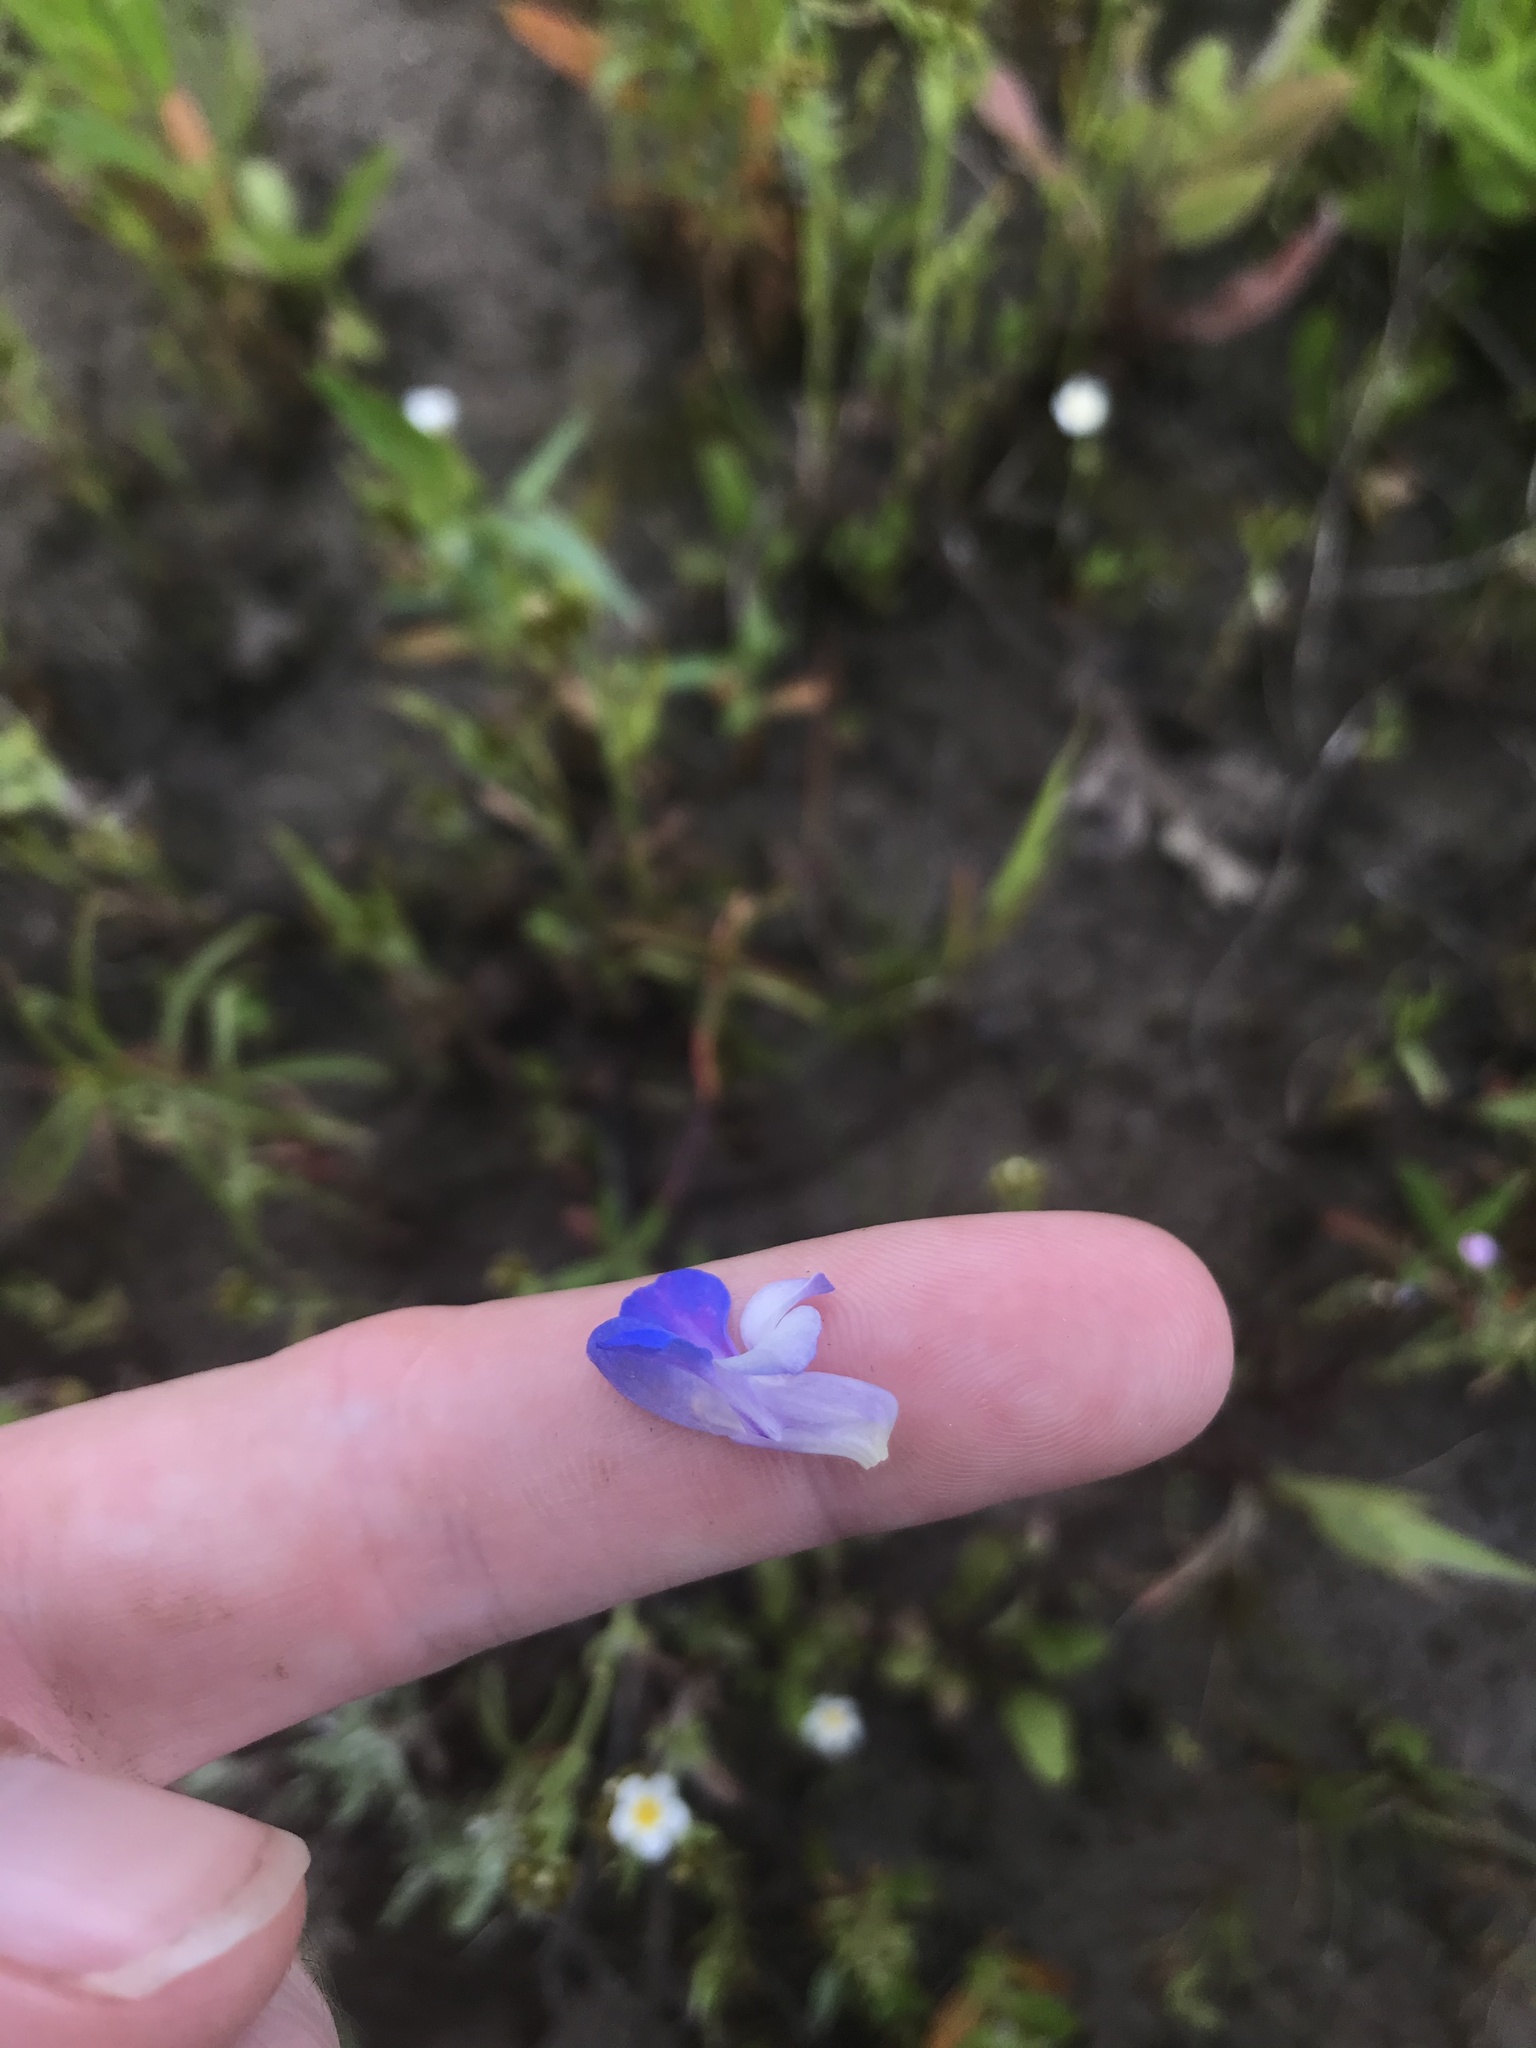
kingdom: Plantae
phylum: Tracheophyta
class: Magnoliopsida
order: Lamiales
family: Plantaginaceae
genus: Collinsia
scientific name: Collinsia grandiflora
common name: Large-flower blue-eyed-mary
